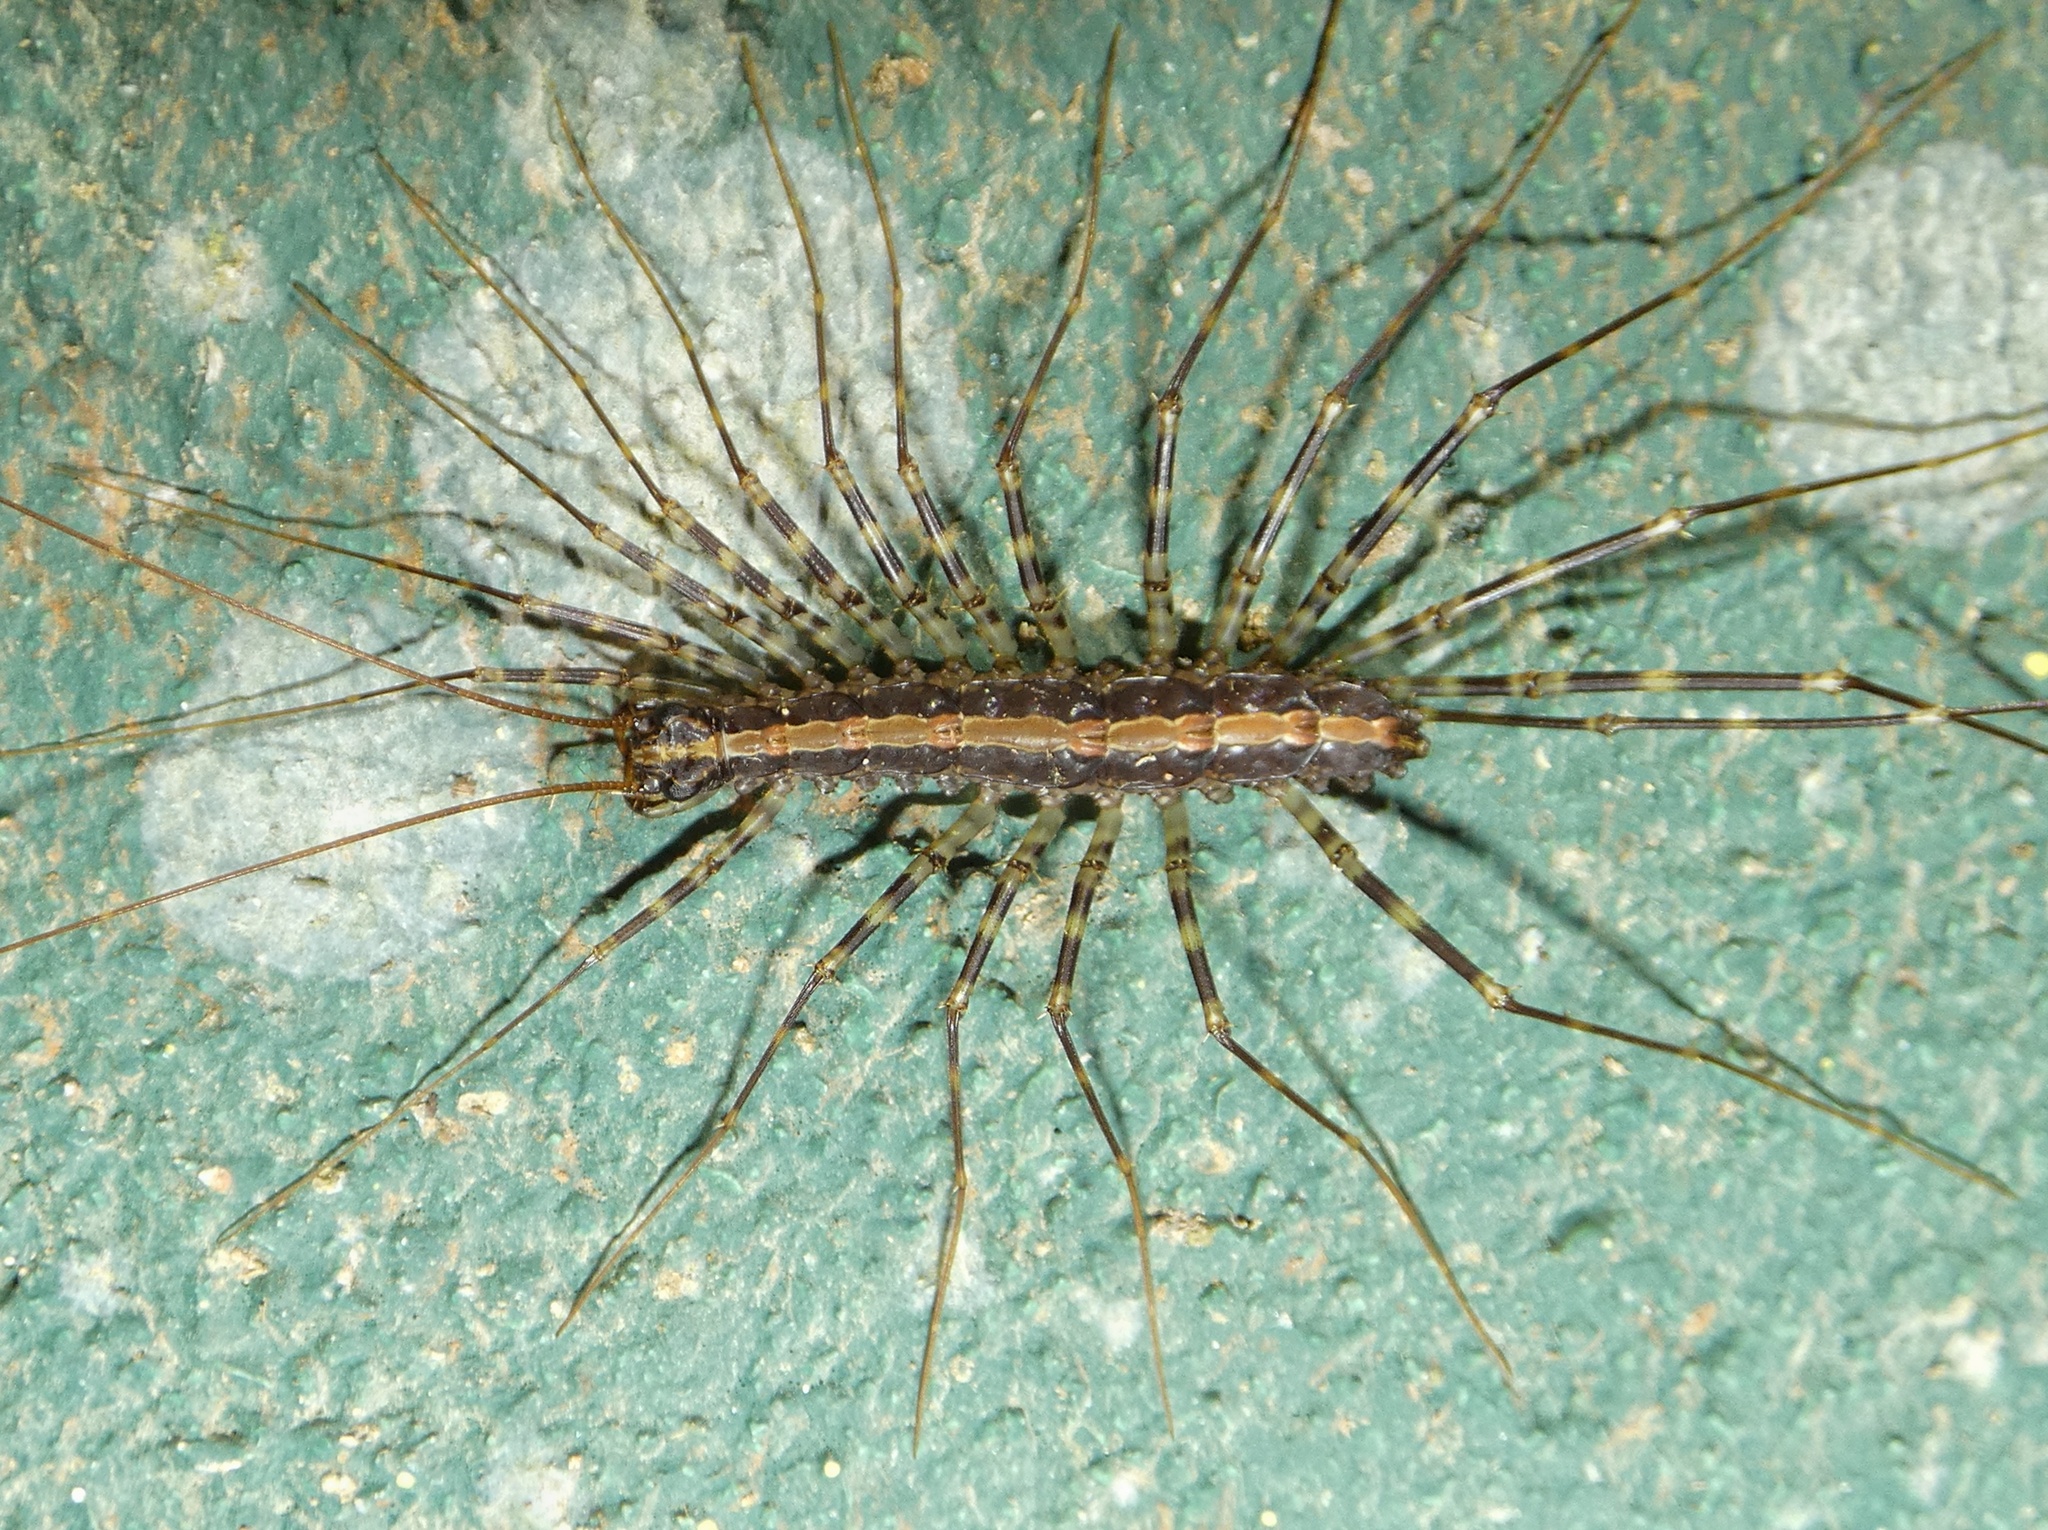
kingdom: Animalia
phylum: Arthropoda
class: Chilopoda
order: Scutigeromorpha
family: Pselliodidae
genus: Sphendononema
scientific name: Sphendononema guildingii
